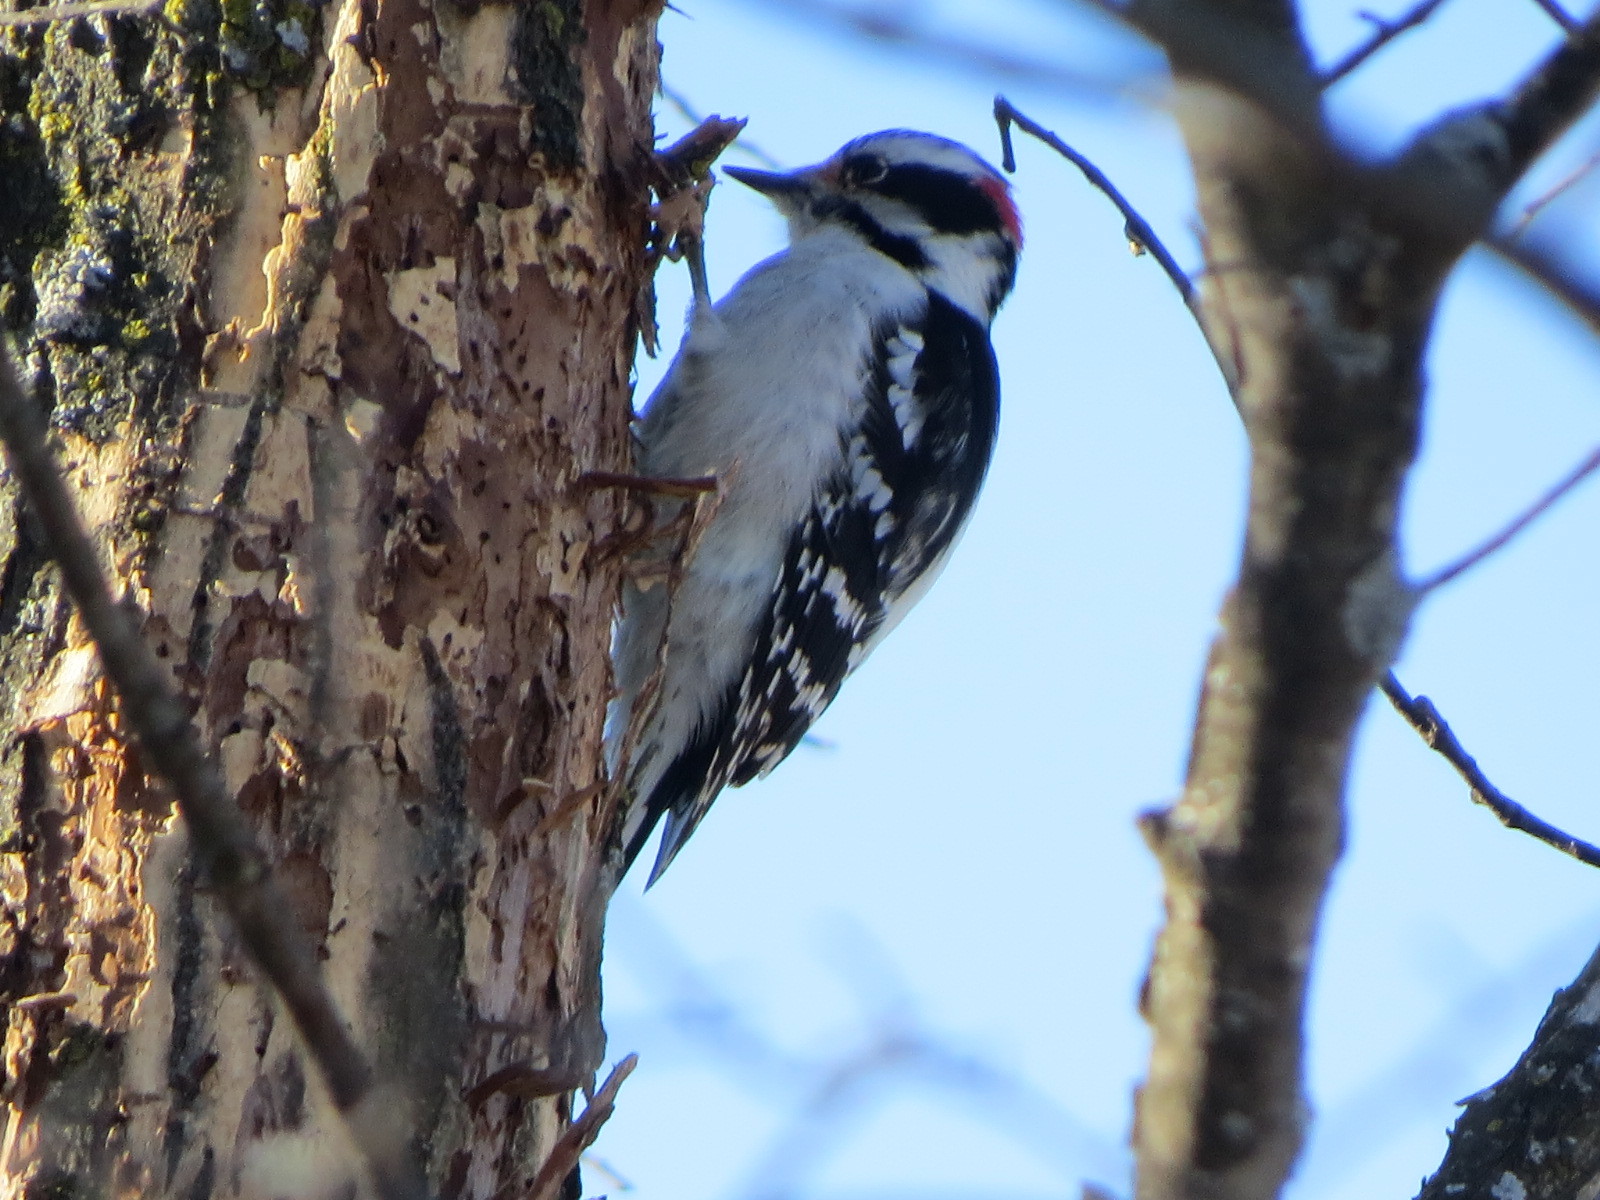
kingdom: Animalia
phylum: Chordata
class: Aves
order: Piciformes
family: Picidae
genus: Dryobates
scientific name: Dryobates pubescens
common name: Downy woodpecker
